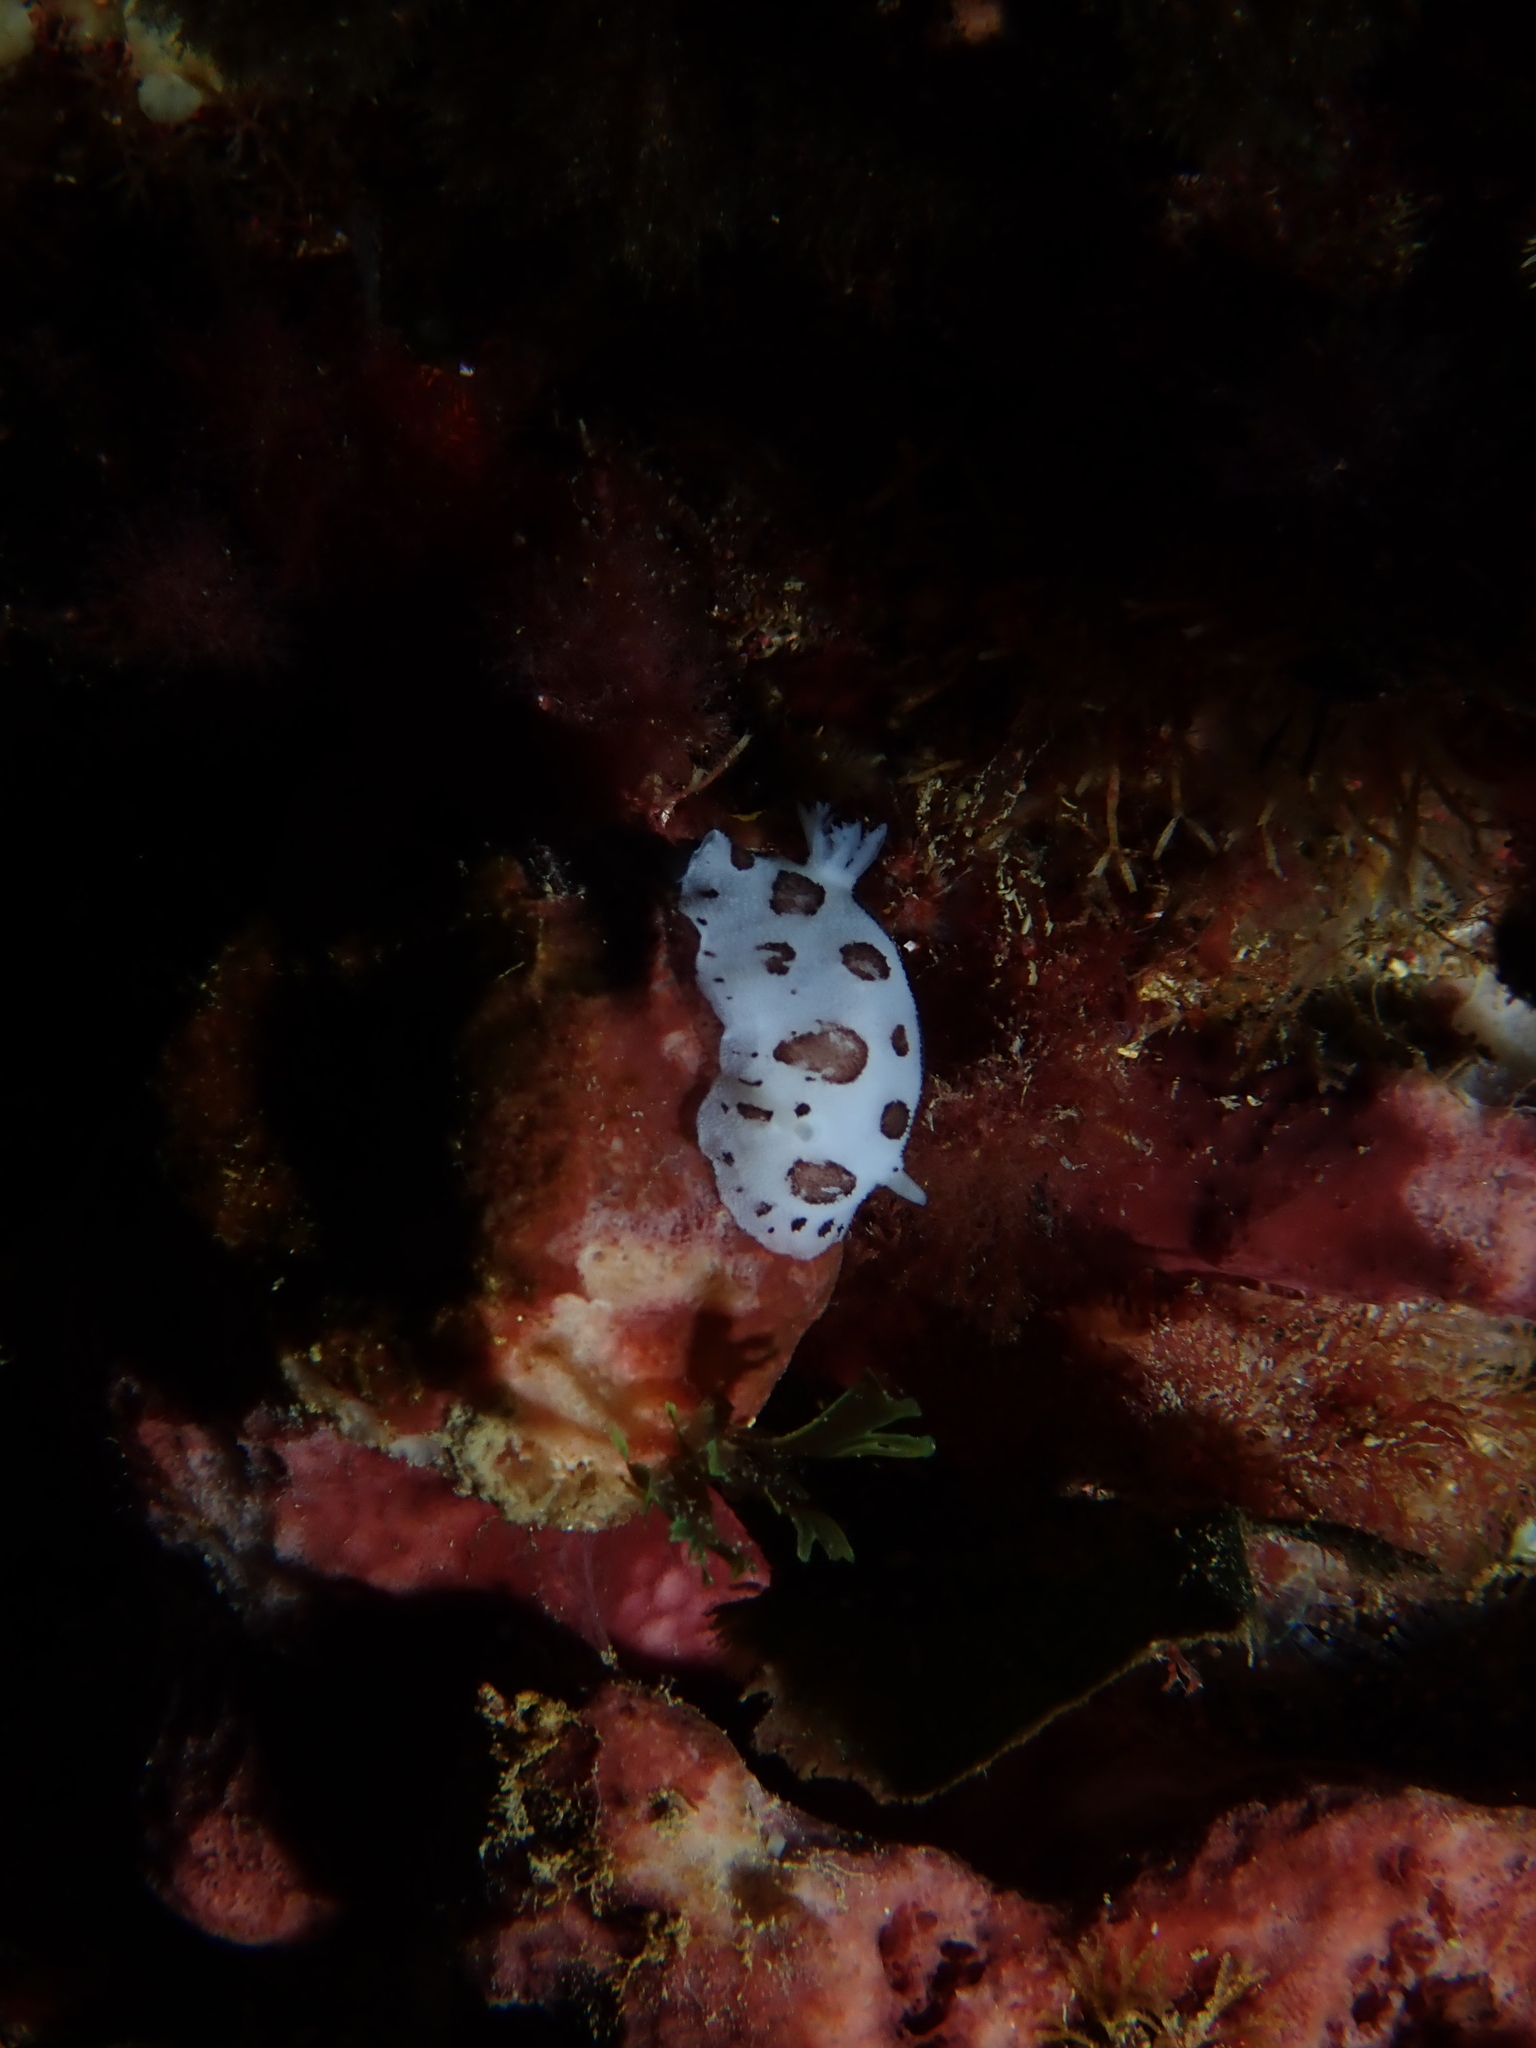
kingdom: Animalia
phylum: Mollusca
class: Gastropoda
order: Nudibranchia
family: Discodorididae
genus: Peltodoris
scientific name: Peltodoris atromaculata
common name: Swiss cow nudibranch
